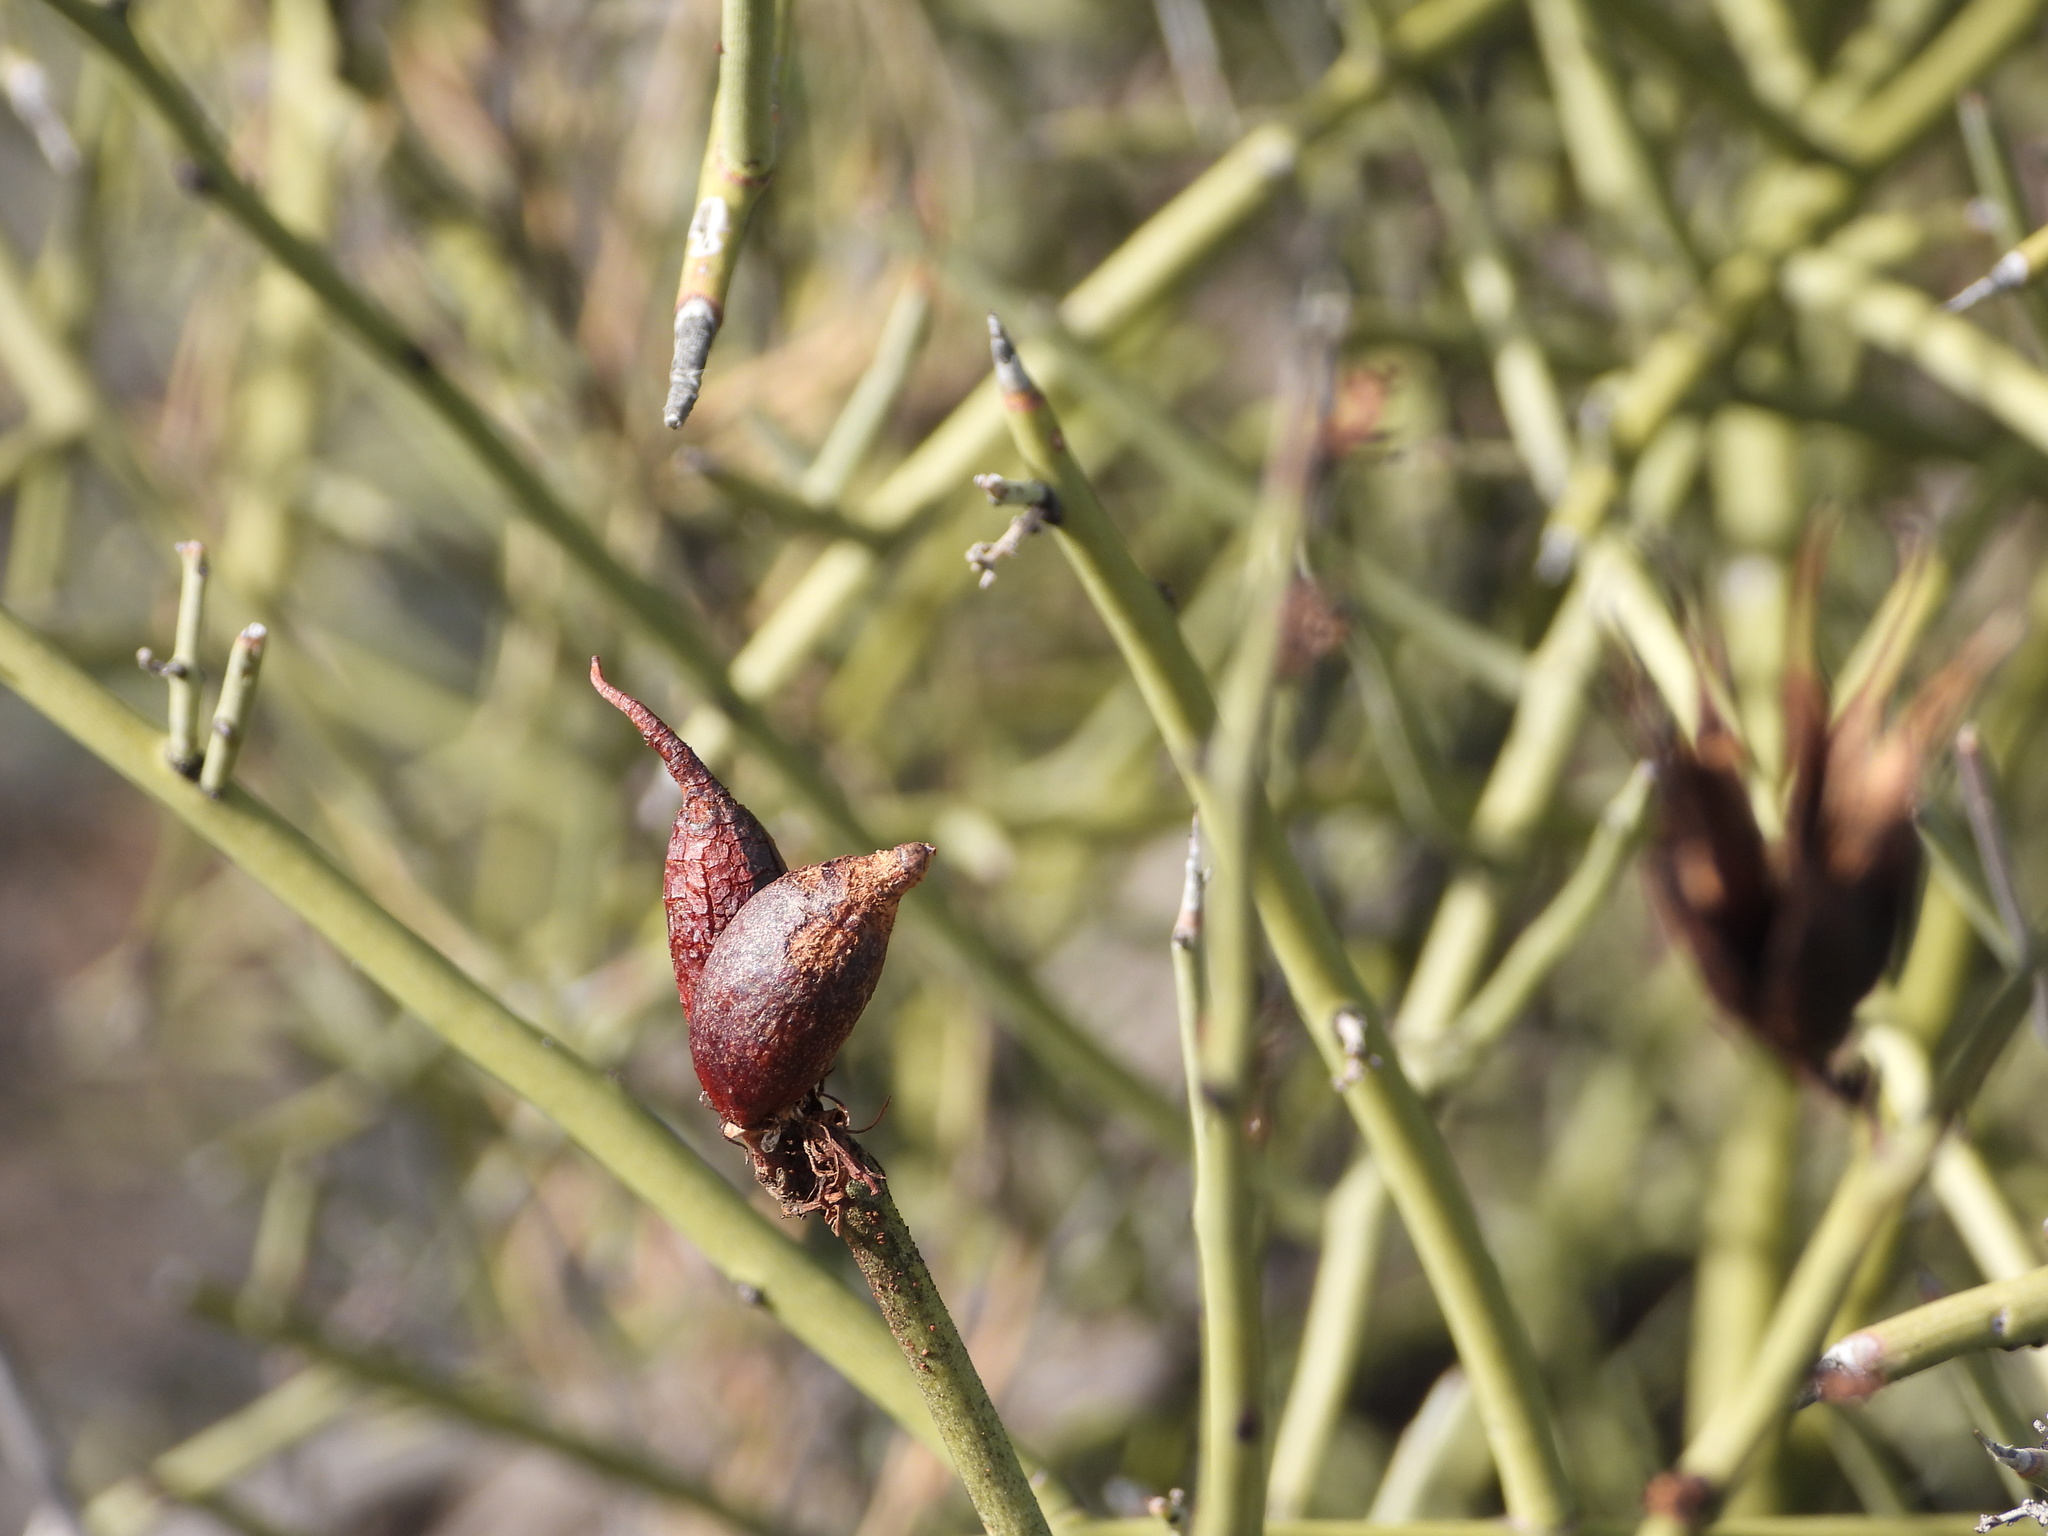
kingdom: Plantae
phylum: Tracheophyta
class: Magnoliopsida
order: Celastrales
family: Celastraceae
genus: Canotia
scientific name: Canotia holacantha
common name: Crucifixion thorns
